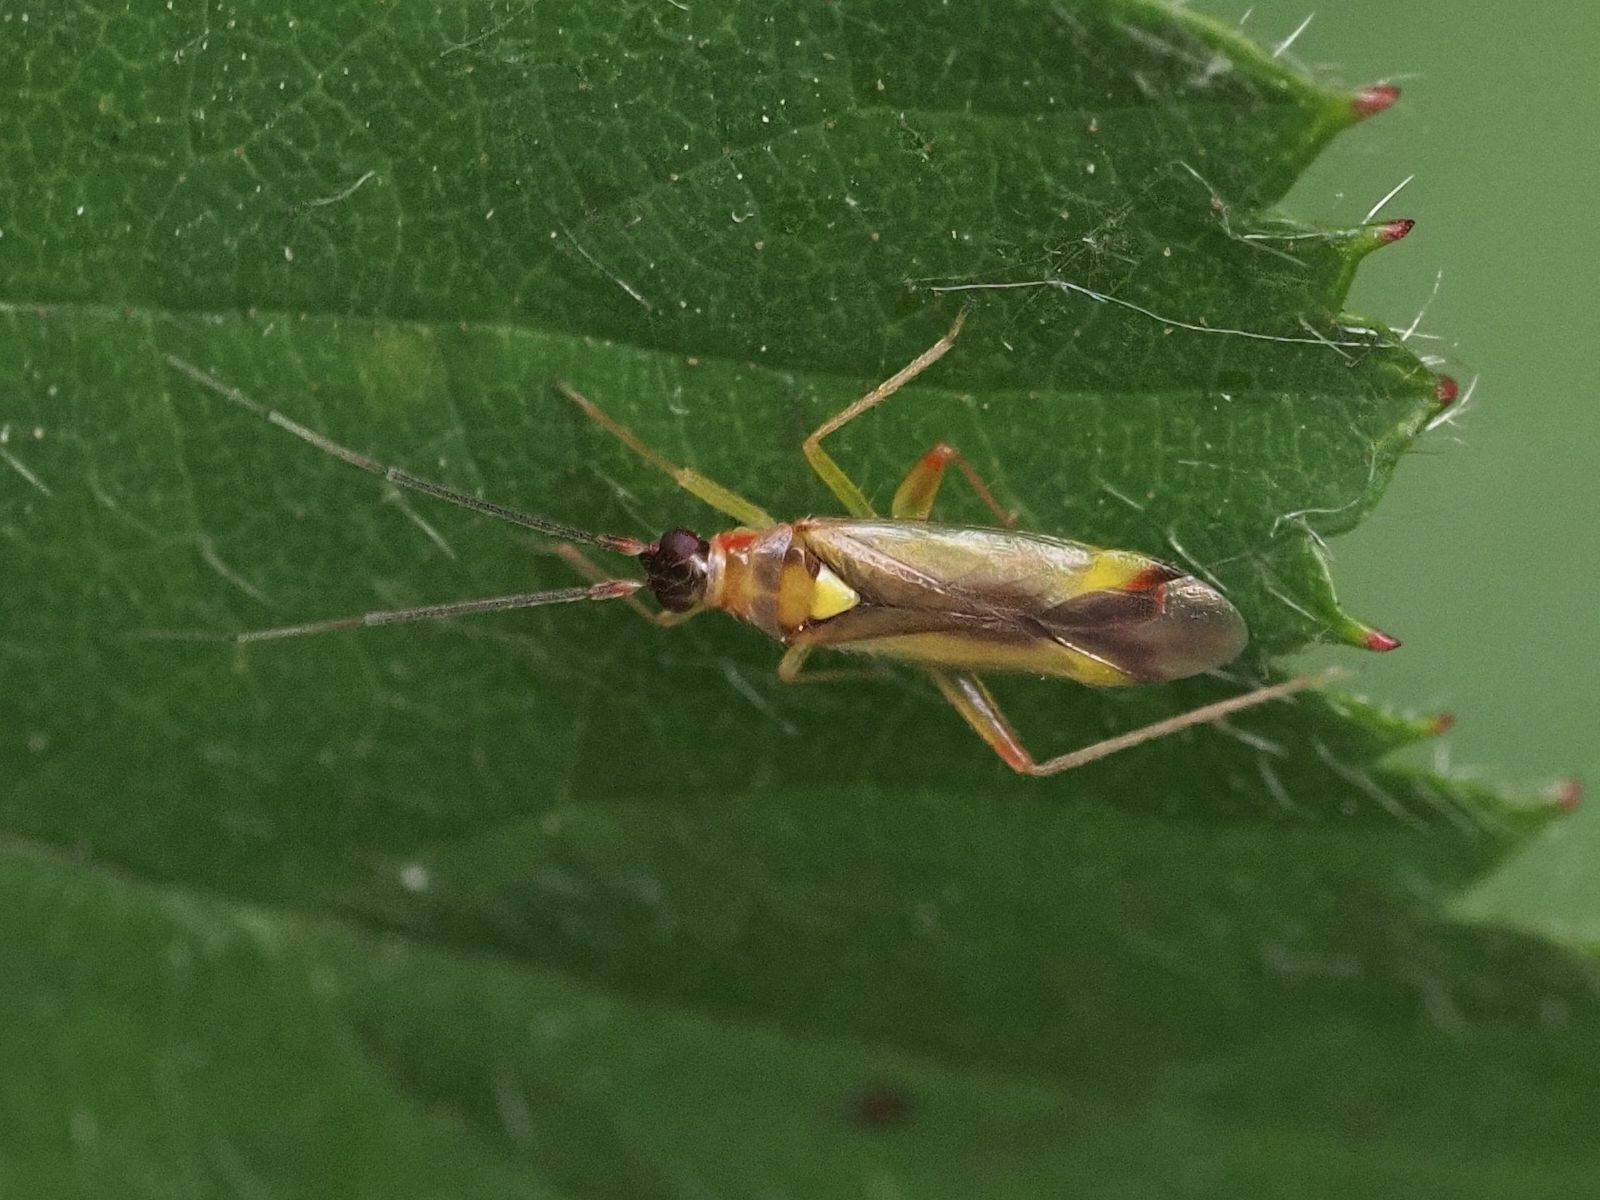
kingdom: Animalia
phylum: Arthropoda
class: Insecta
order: Hemiptera
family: Miridae
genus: Campyloneura
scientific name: Campyloneura virgula
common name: Predatory bug
